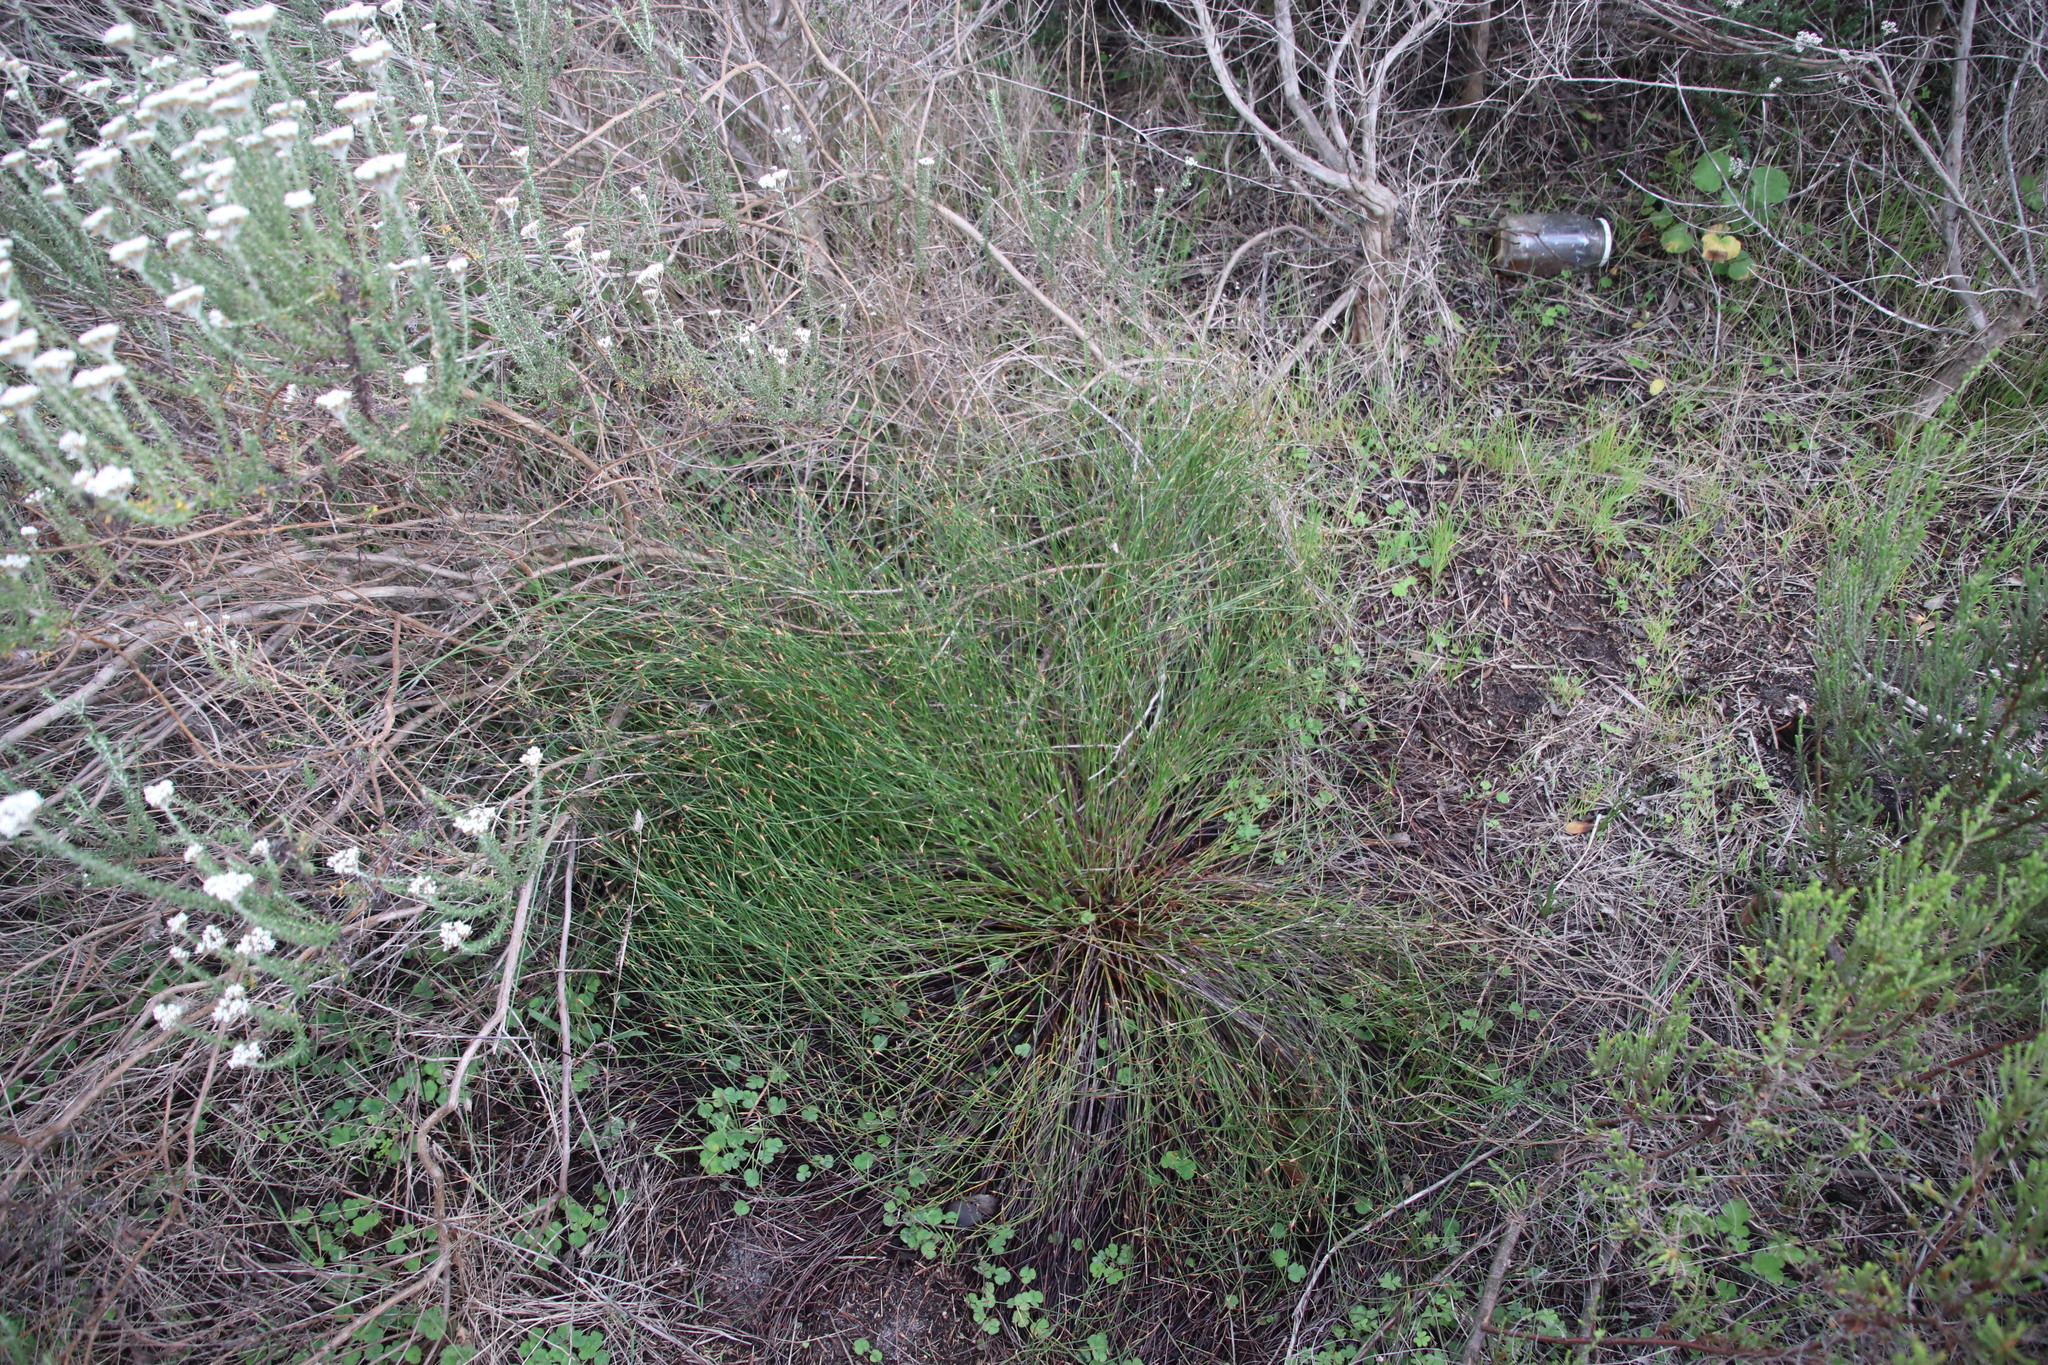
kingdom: Plantae
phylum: Tracheophyta
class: Liliopsida
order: Poales
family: Restionaceae
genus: Mastersiella
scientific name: Mastersiella digitata
